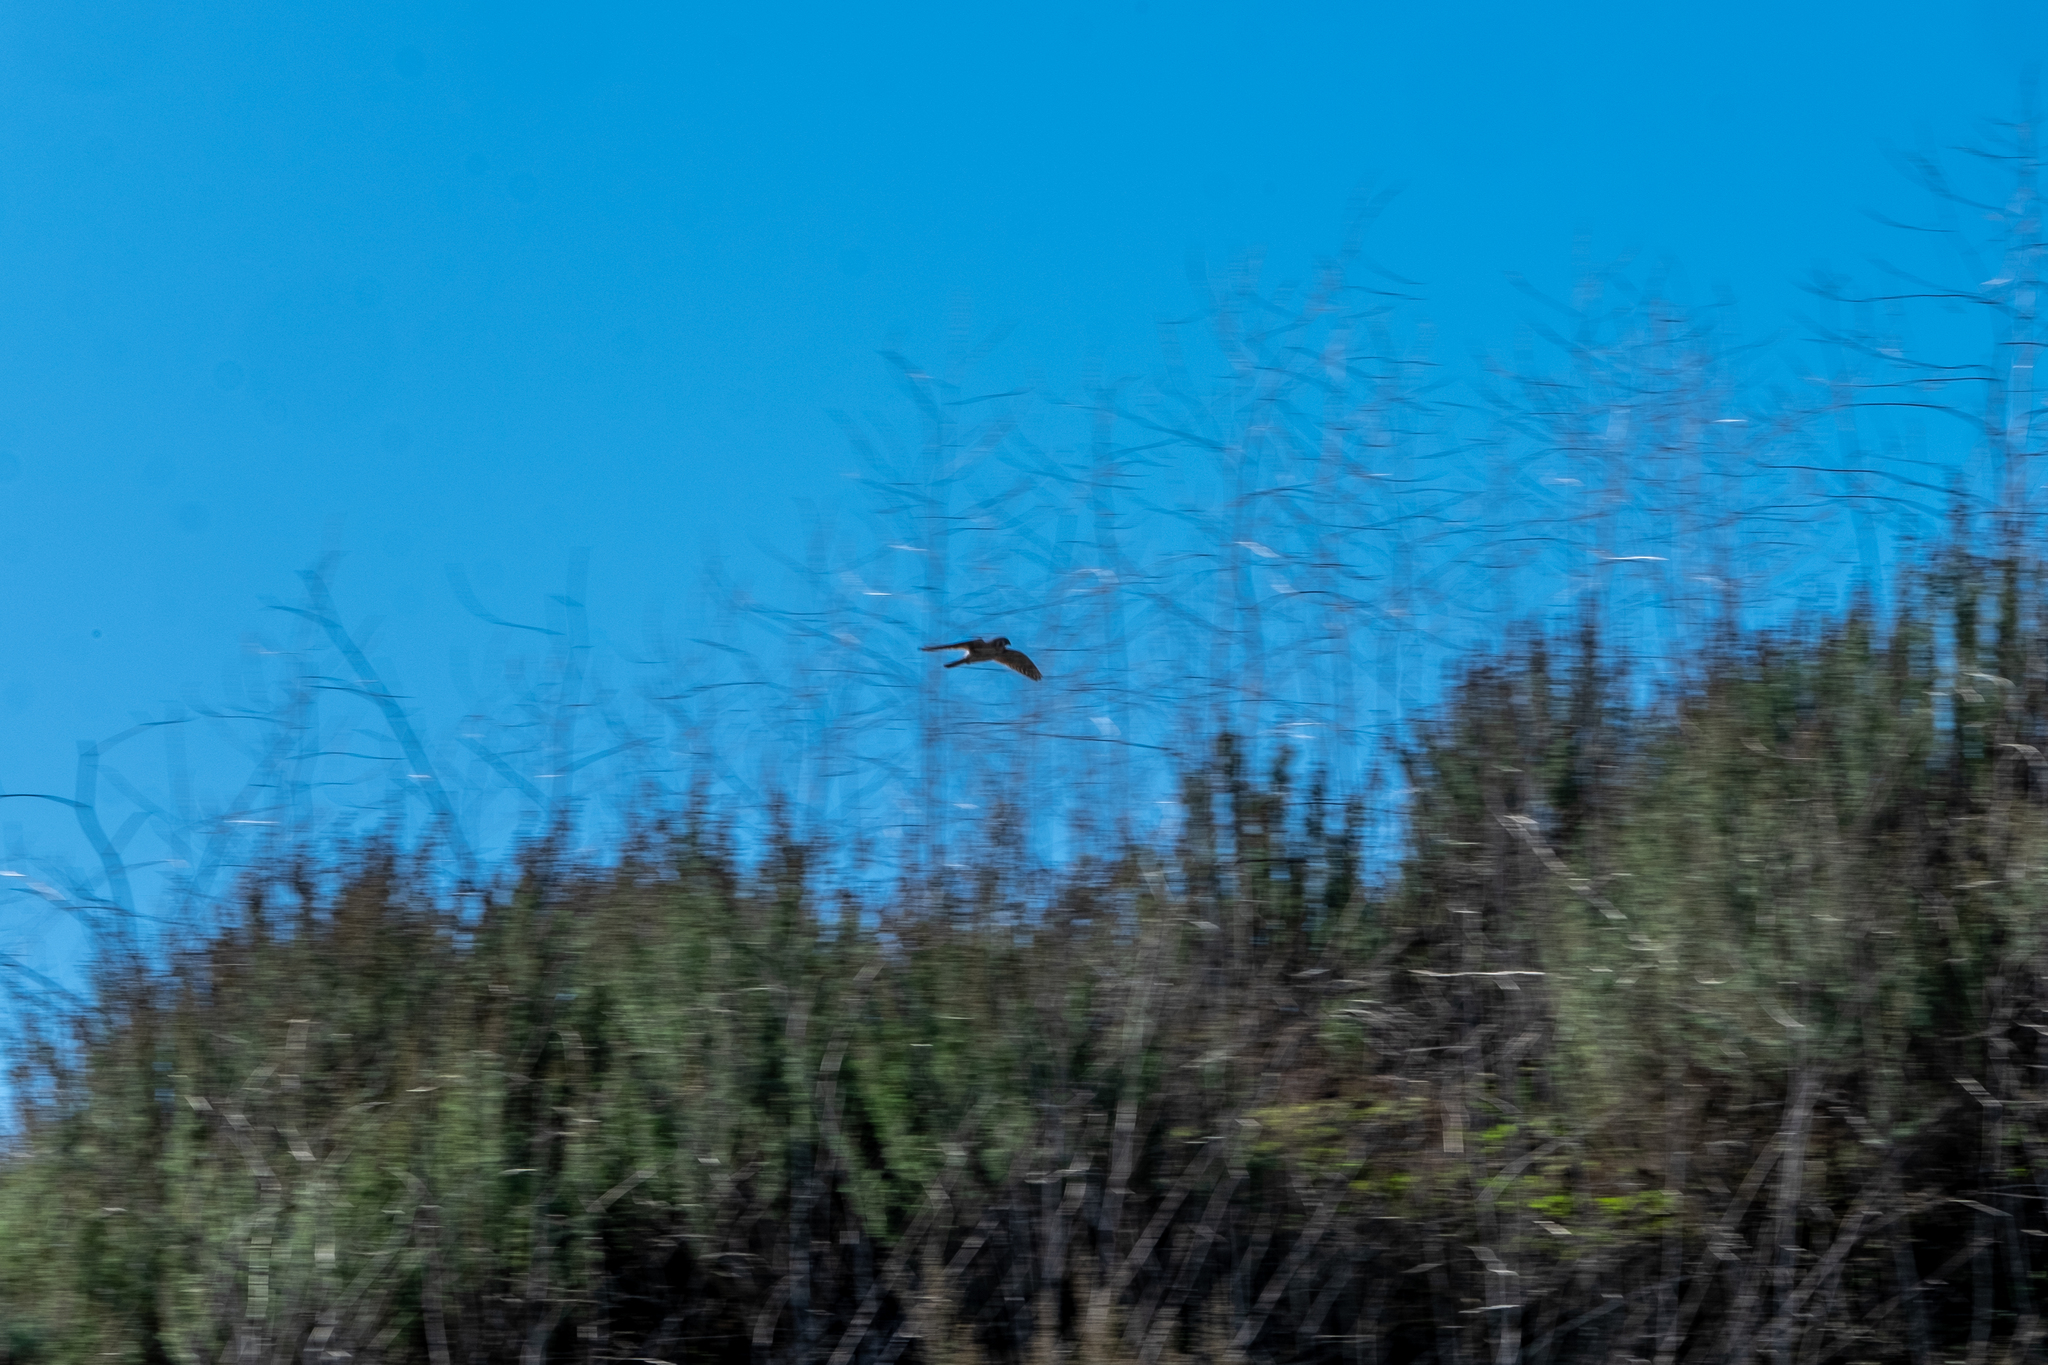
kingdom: Animalia
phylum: Chordata
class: Aves
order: Falconiformes
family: Falconidae
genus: Falco
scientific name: Falco sparverius
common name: American kestrel
